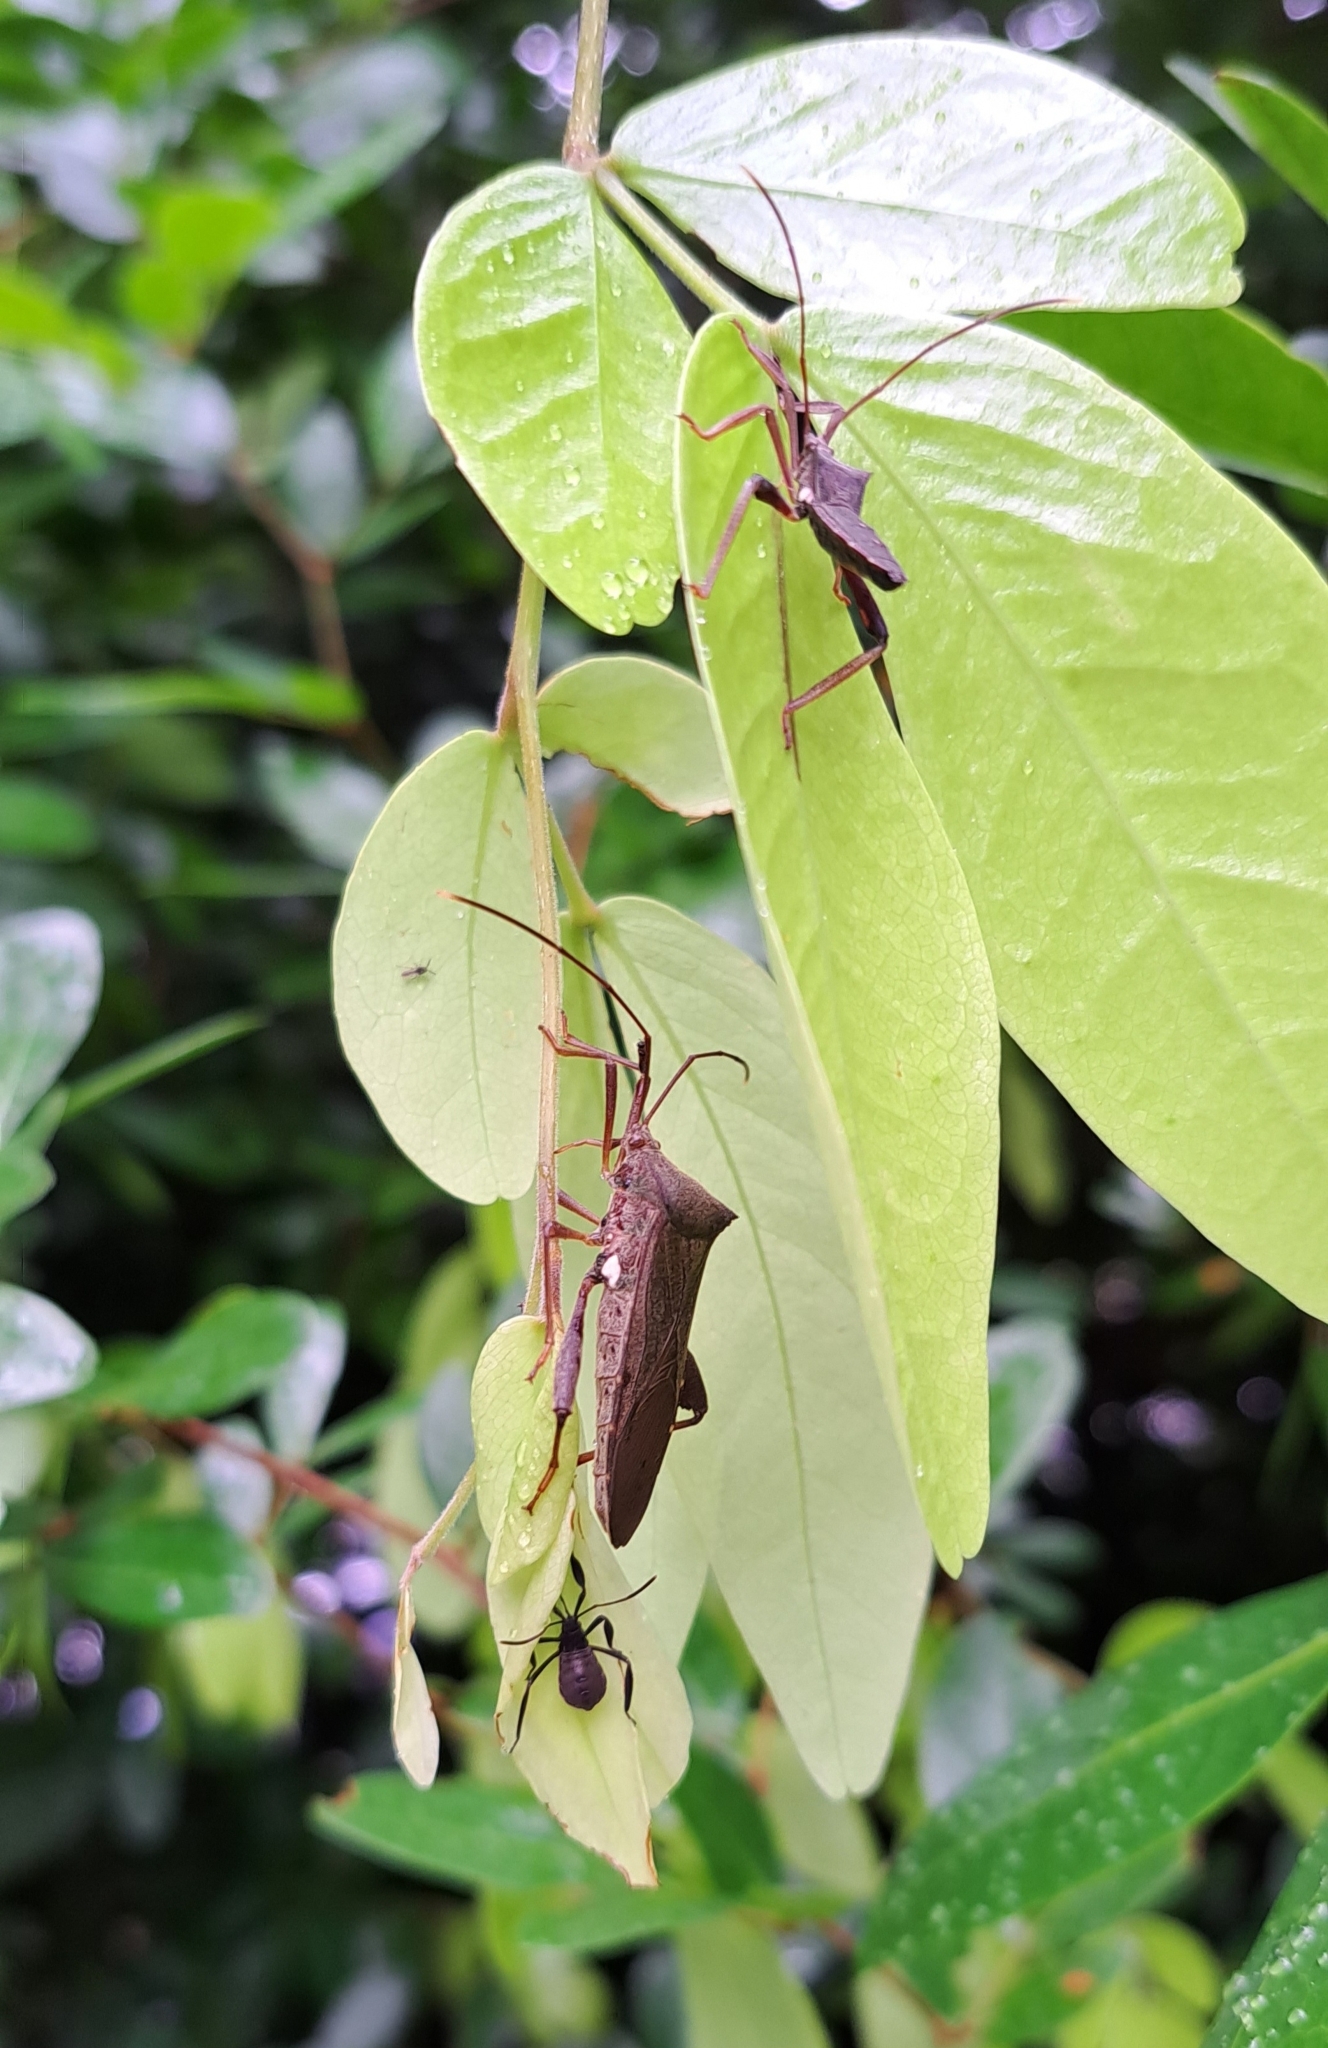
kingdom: Animalia
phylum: Arthropoda
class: Insecta
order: Hemiptera
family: Coreidae
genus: Mictis
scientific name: Mictis longicornis
